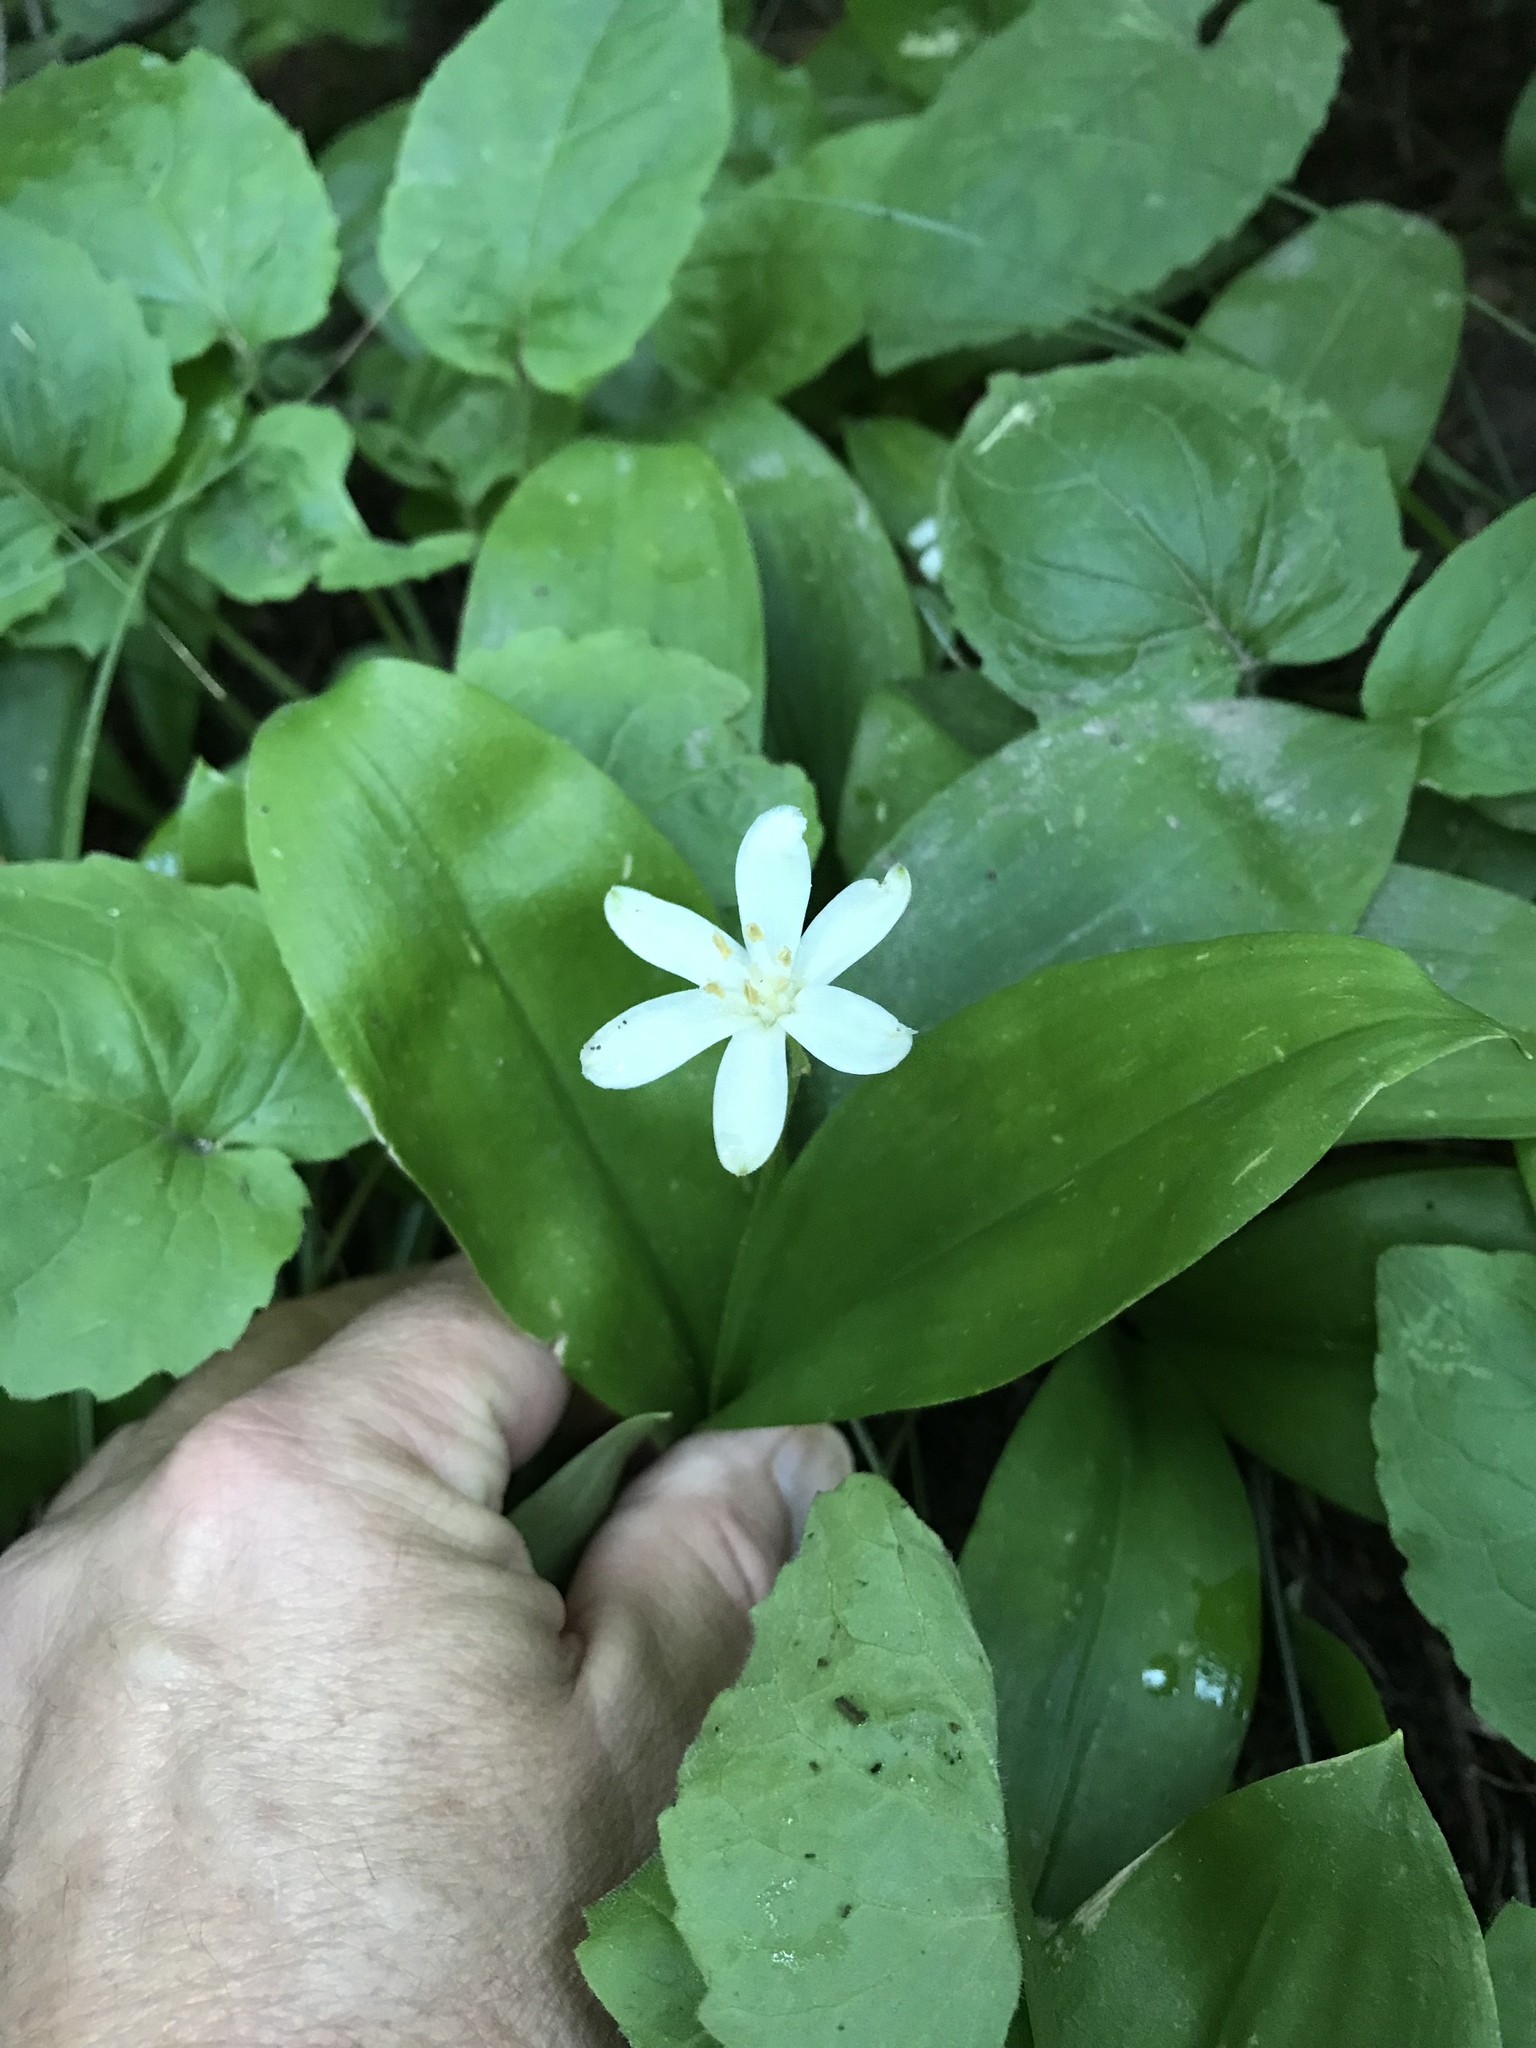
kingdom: Plantae
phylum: Tracheophyta
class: Liliopsida
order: Liliales
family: Liliaceae
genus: Clintonia
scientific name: Clintonia uniflora
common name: Queen's cup
